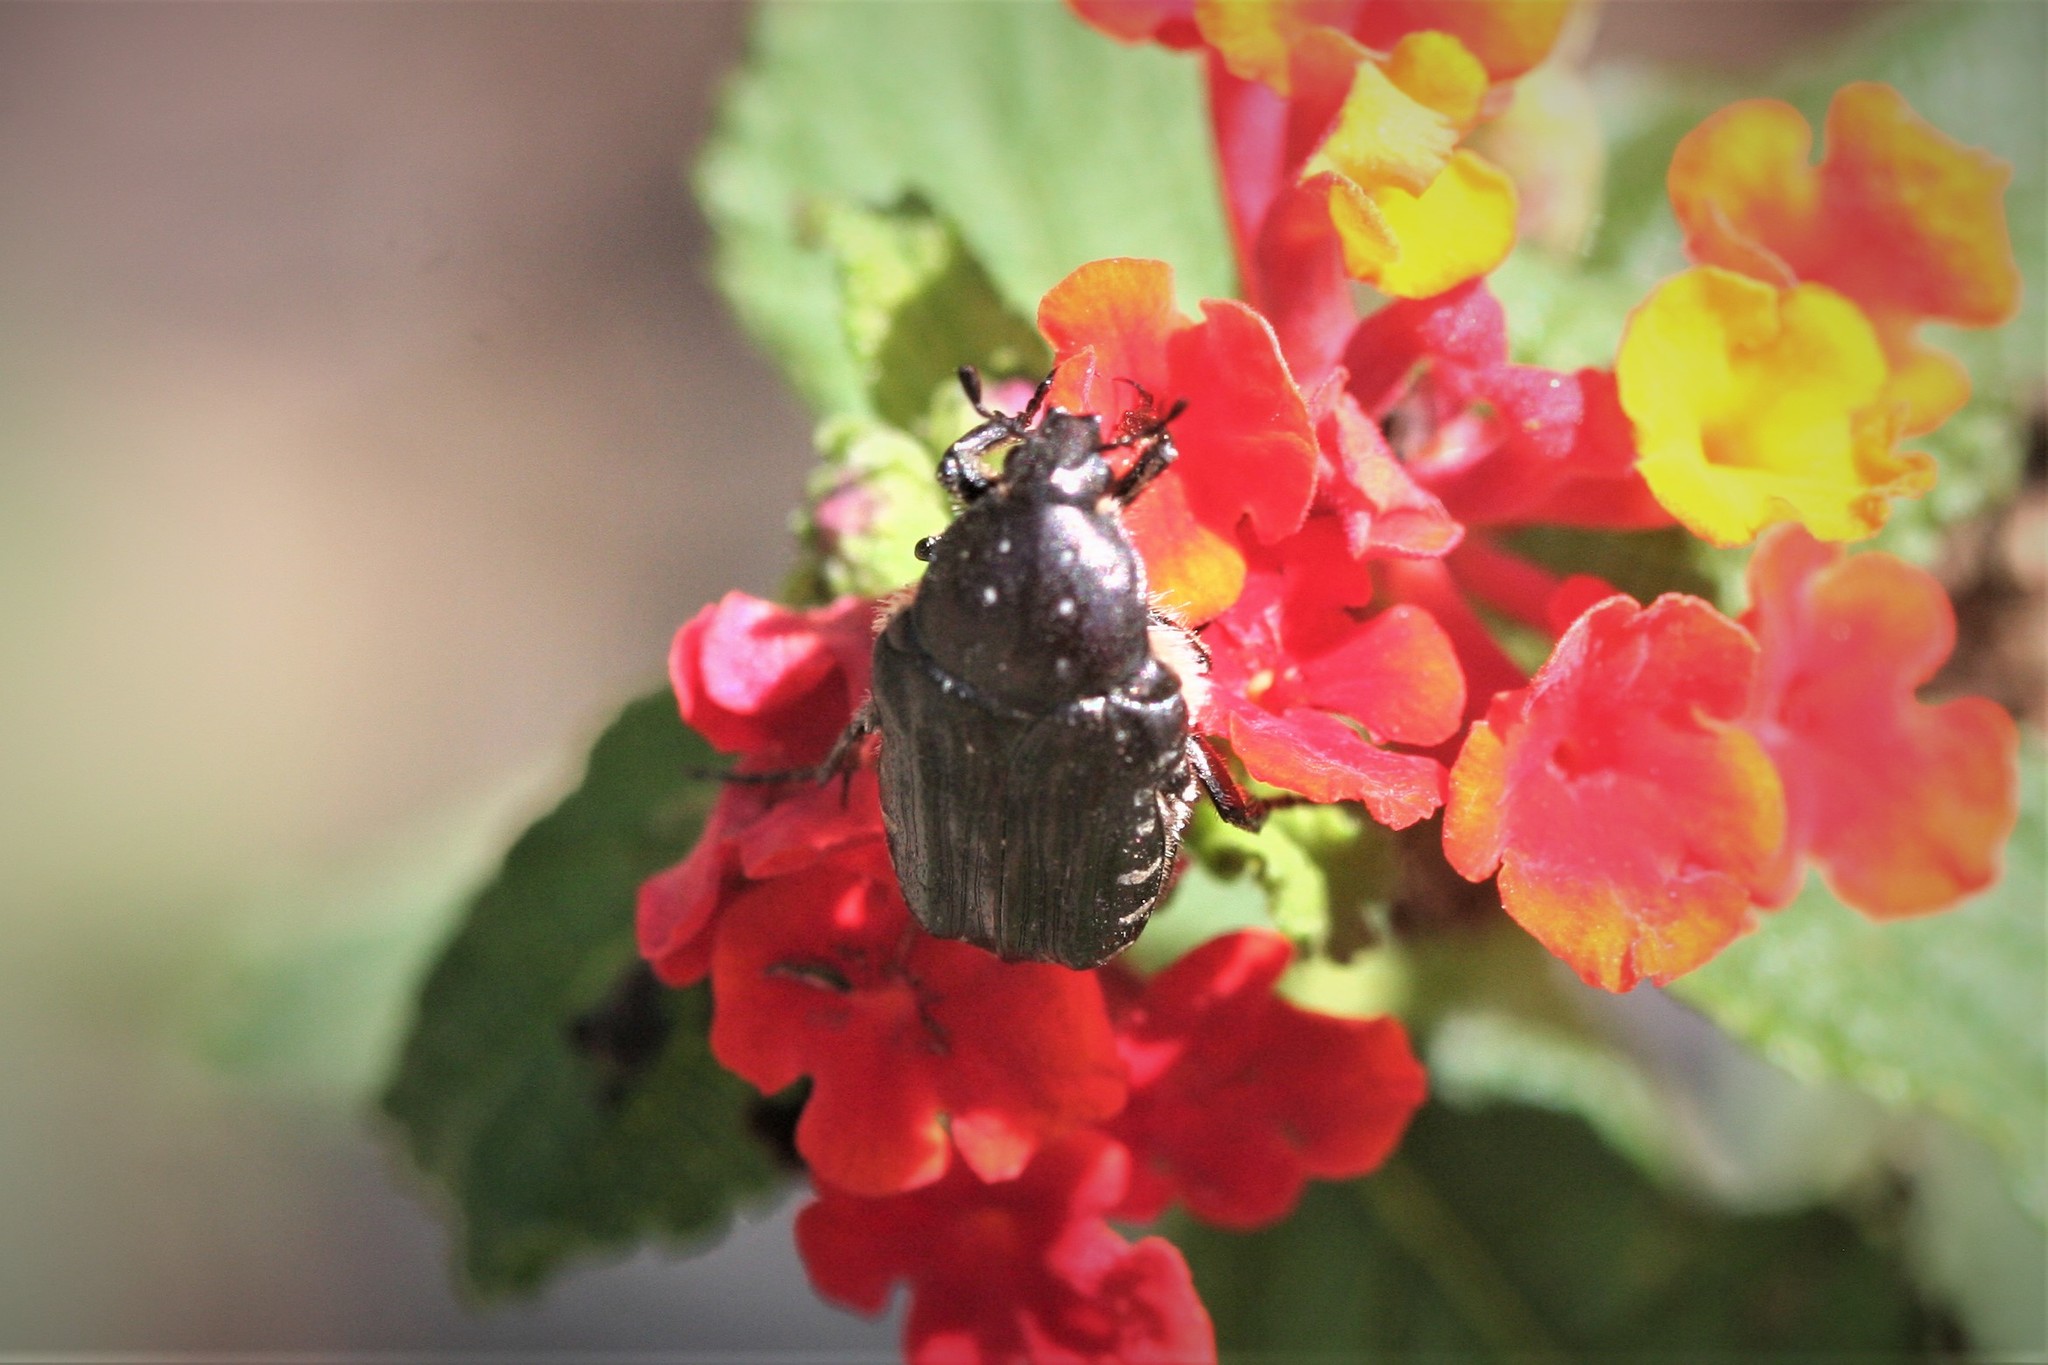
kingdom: Animalia
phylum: Arthropoda
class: Insecta
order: Coleoptera
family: Scarabaeidae
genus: Oxythyrea
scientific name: Oxythyrea funesta
